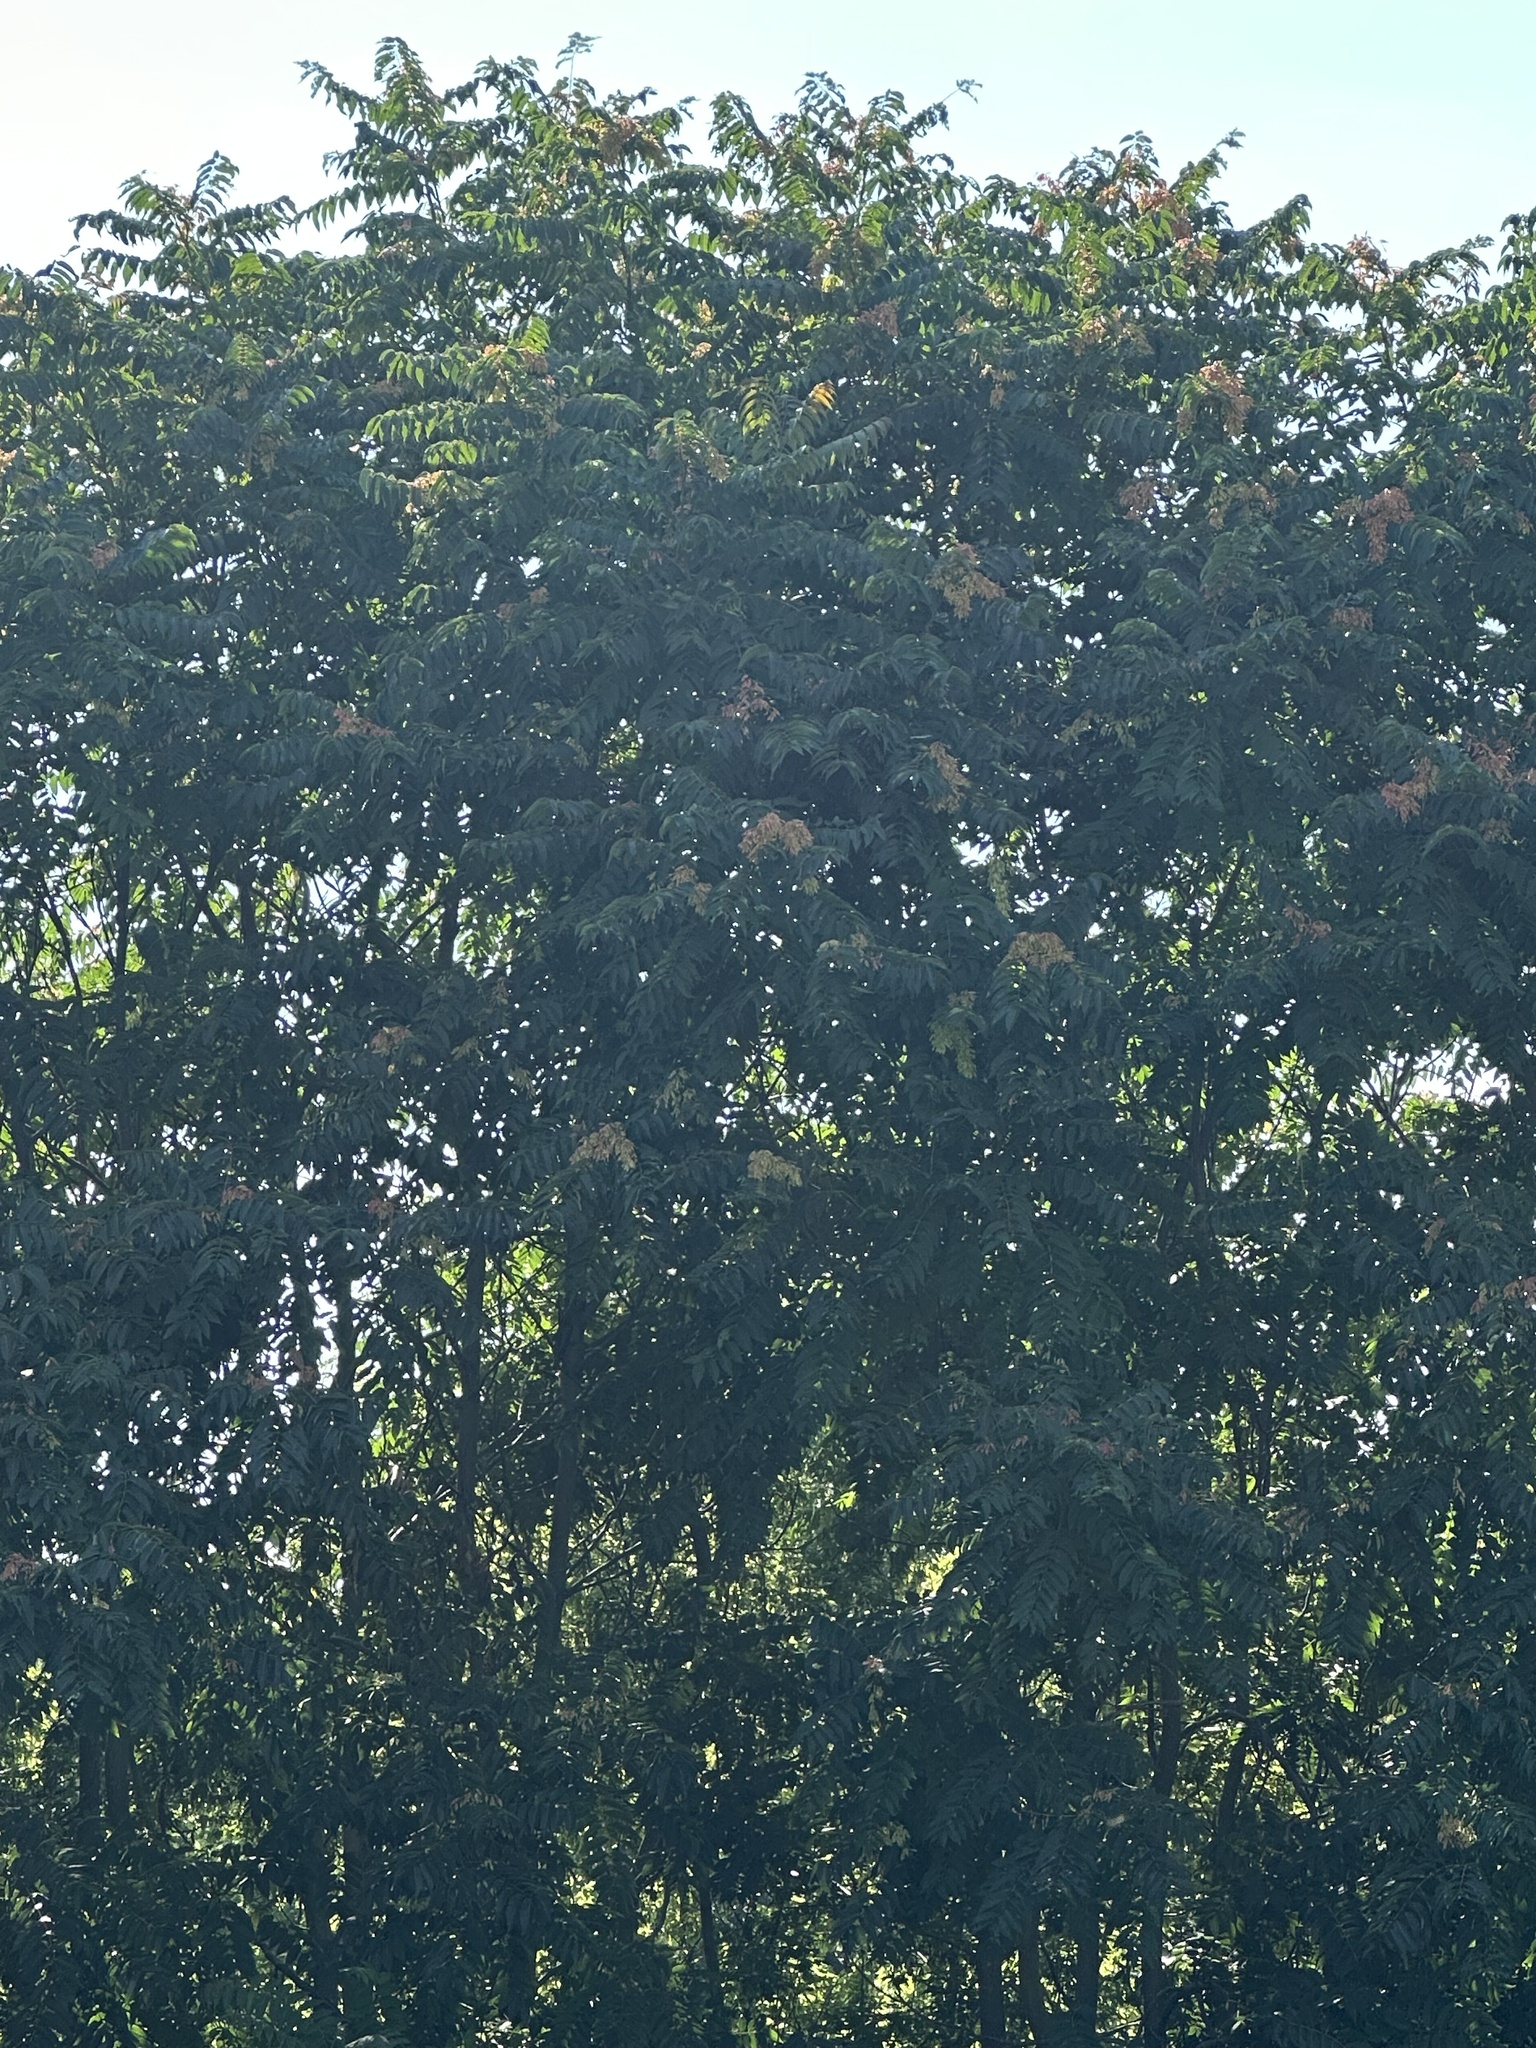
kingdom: Plantae
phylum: Tracheophyta
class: Magnoliopsida
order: Sapindales
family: Simaroubaceae
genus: Ailanthus
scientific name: Ailanthus altissima
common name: Tree-of-heaven
